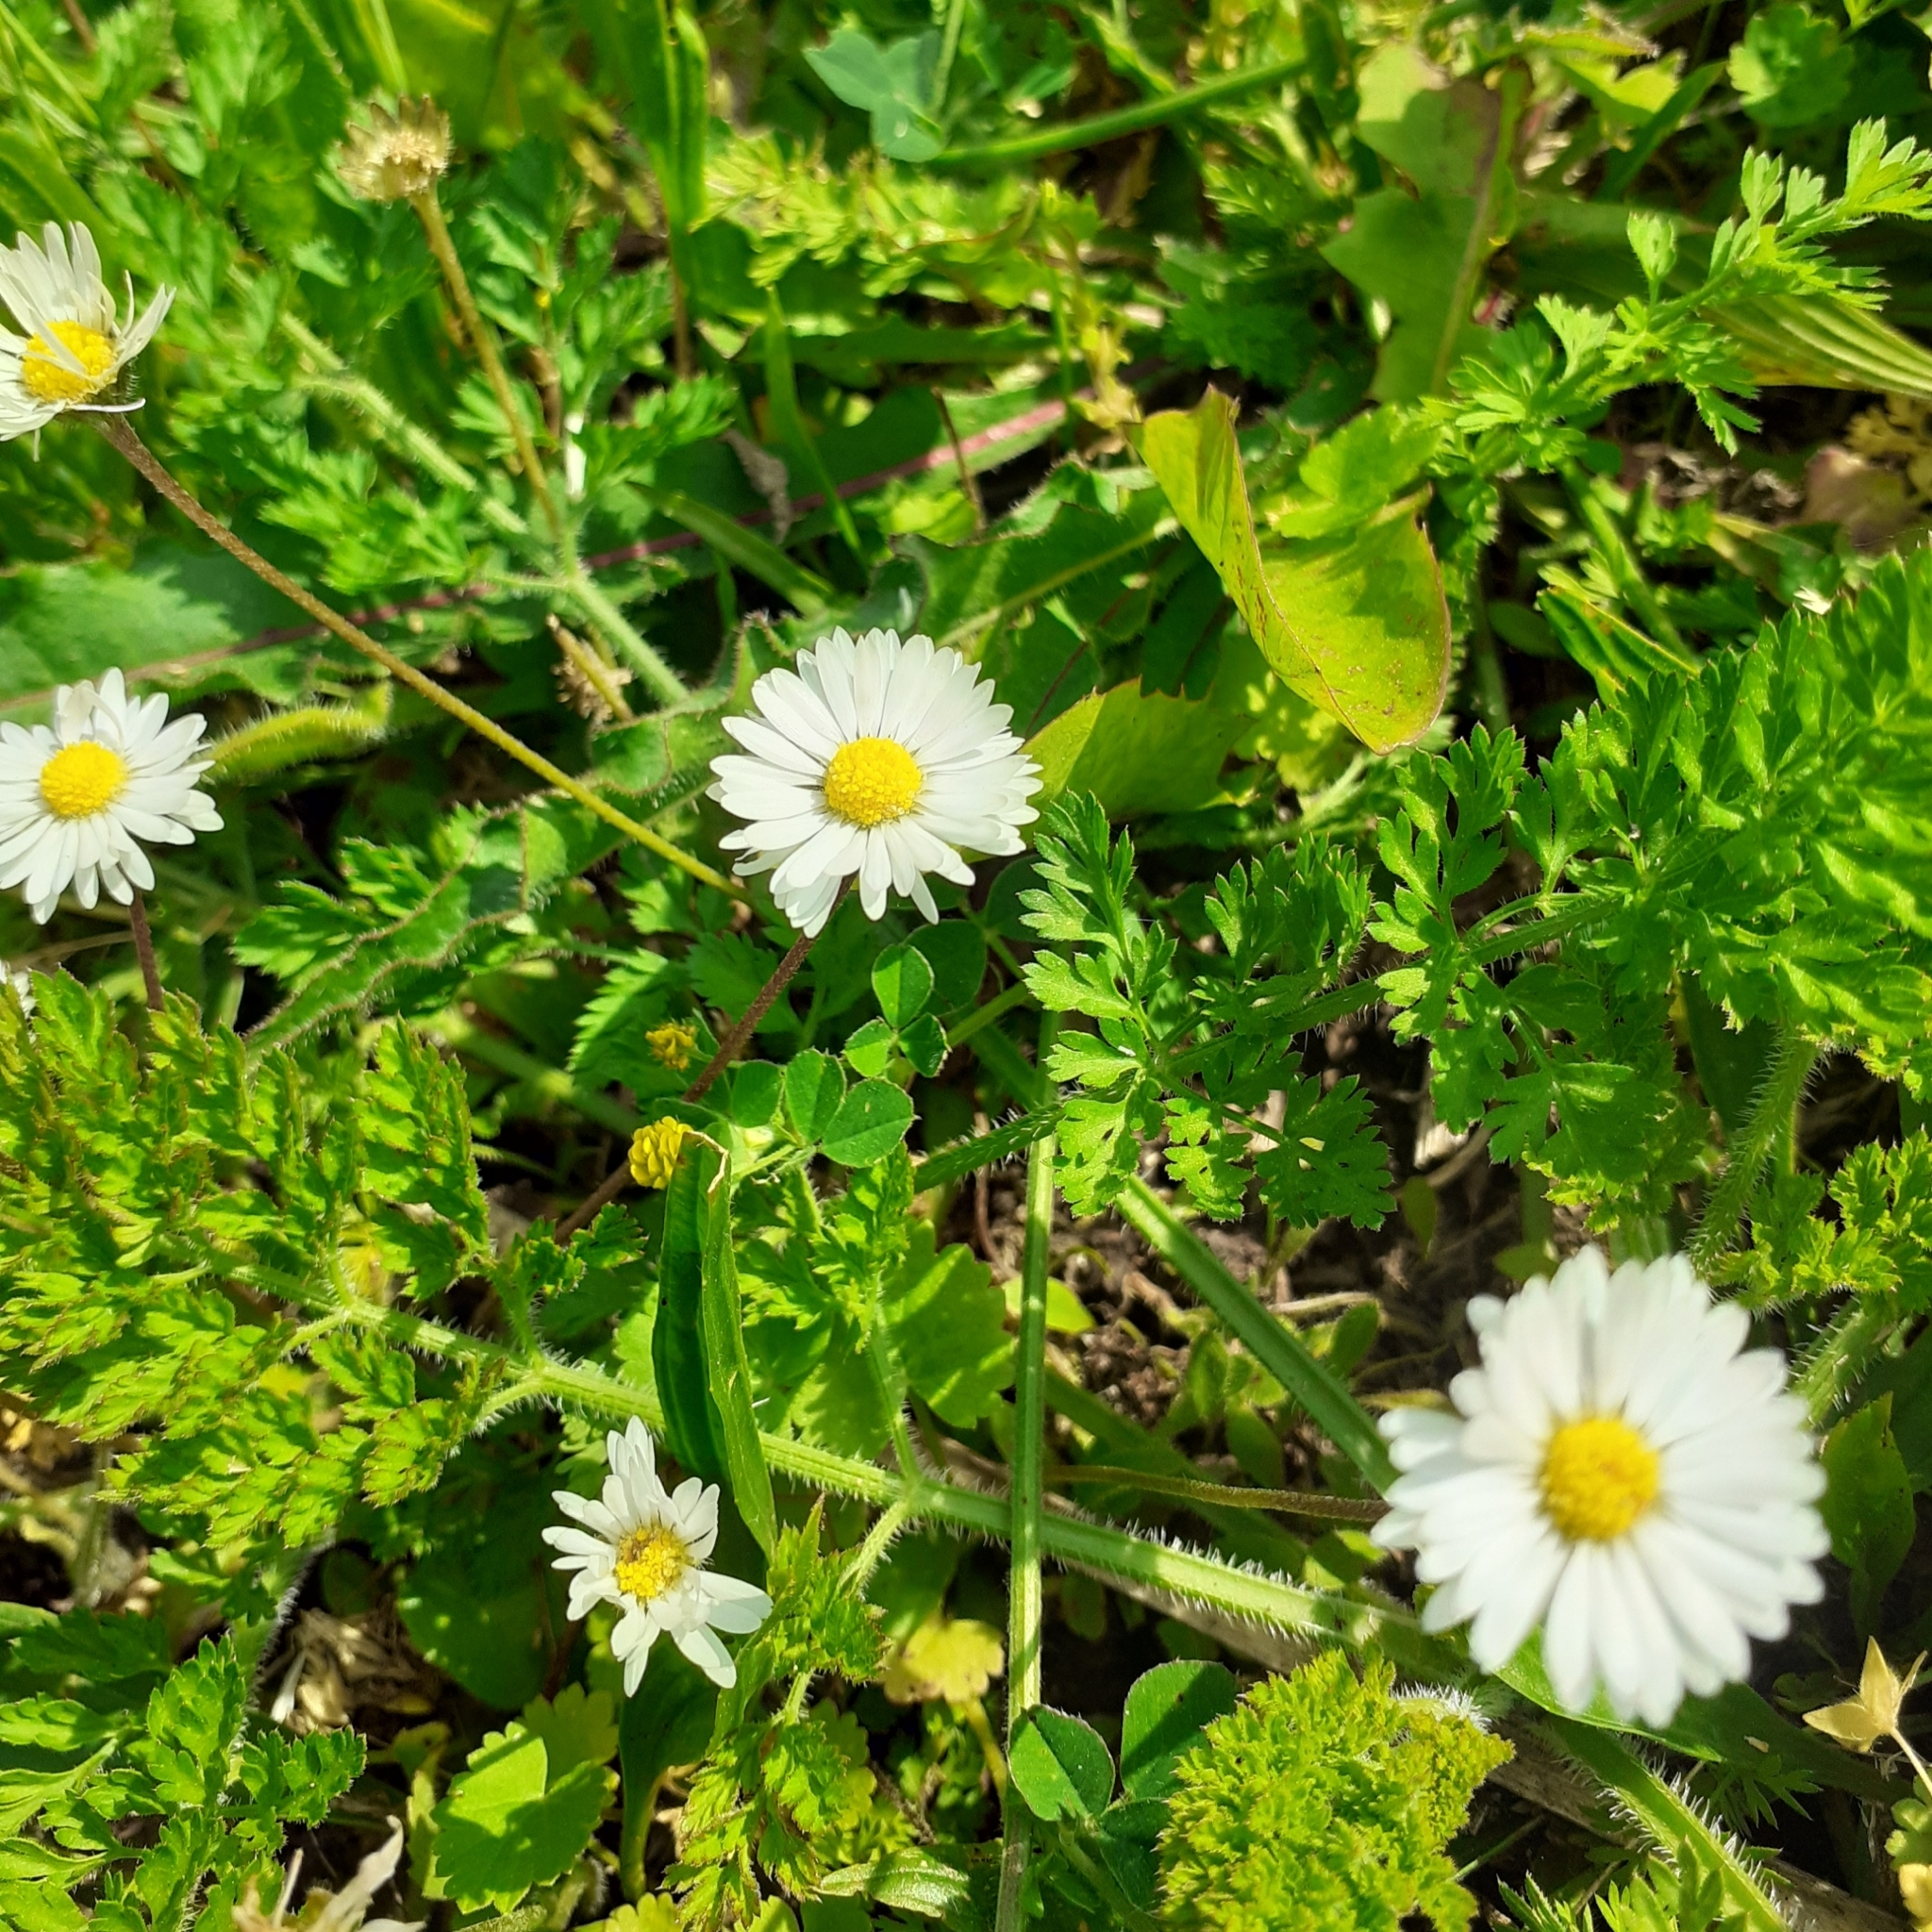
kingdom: Plantae
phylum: Tracheophyta
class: Magnoliopsida
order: Asterales
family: Asteraceae
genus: Bellis
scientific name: Bellis perennis
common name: Lawndaisy
